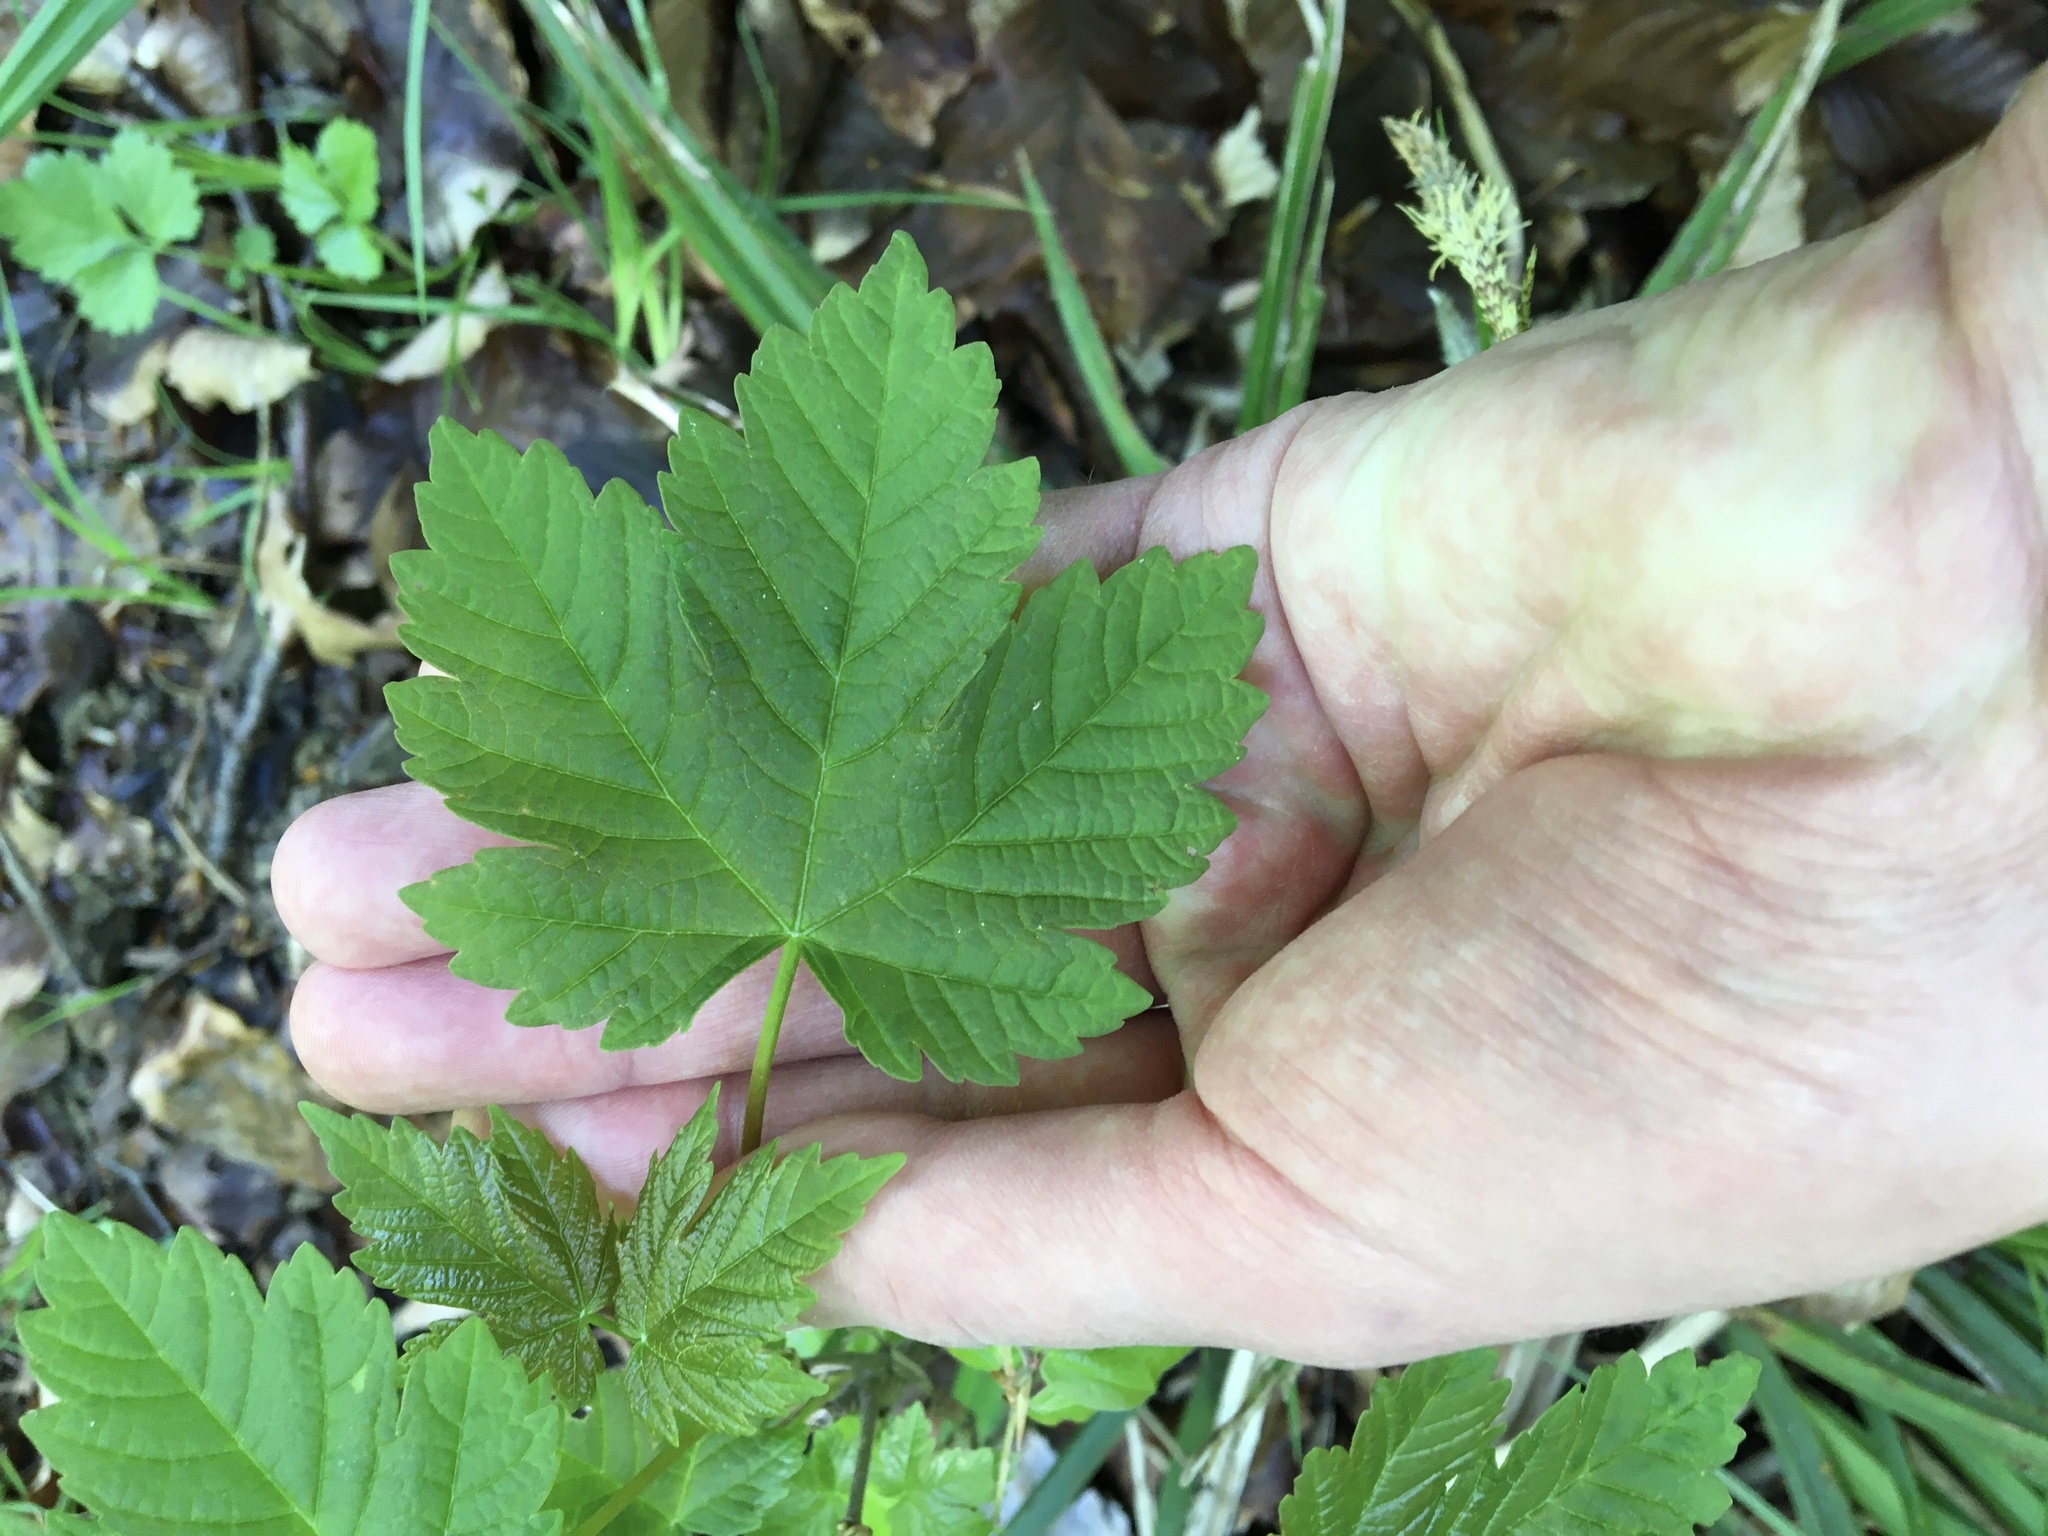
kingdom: Plantae
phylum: Tracheophyta
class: Magnoliopsida
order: Sapindales
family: Sapindaceae
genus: Acer
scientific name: Acer pseudoplatanus
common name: Sycamore
